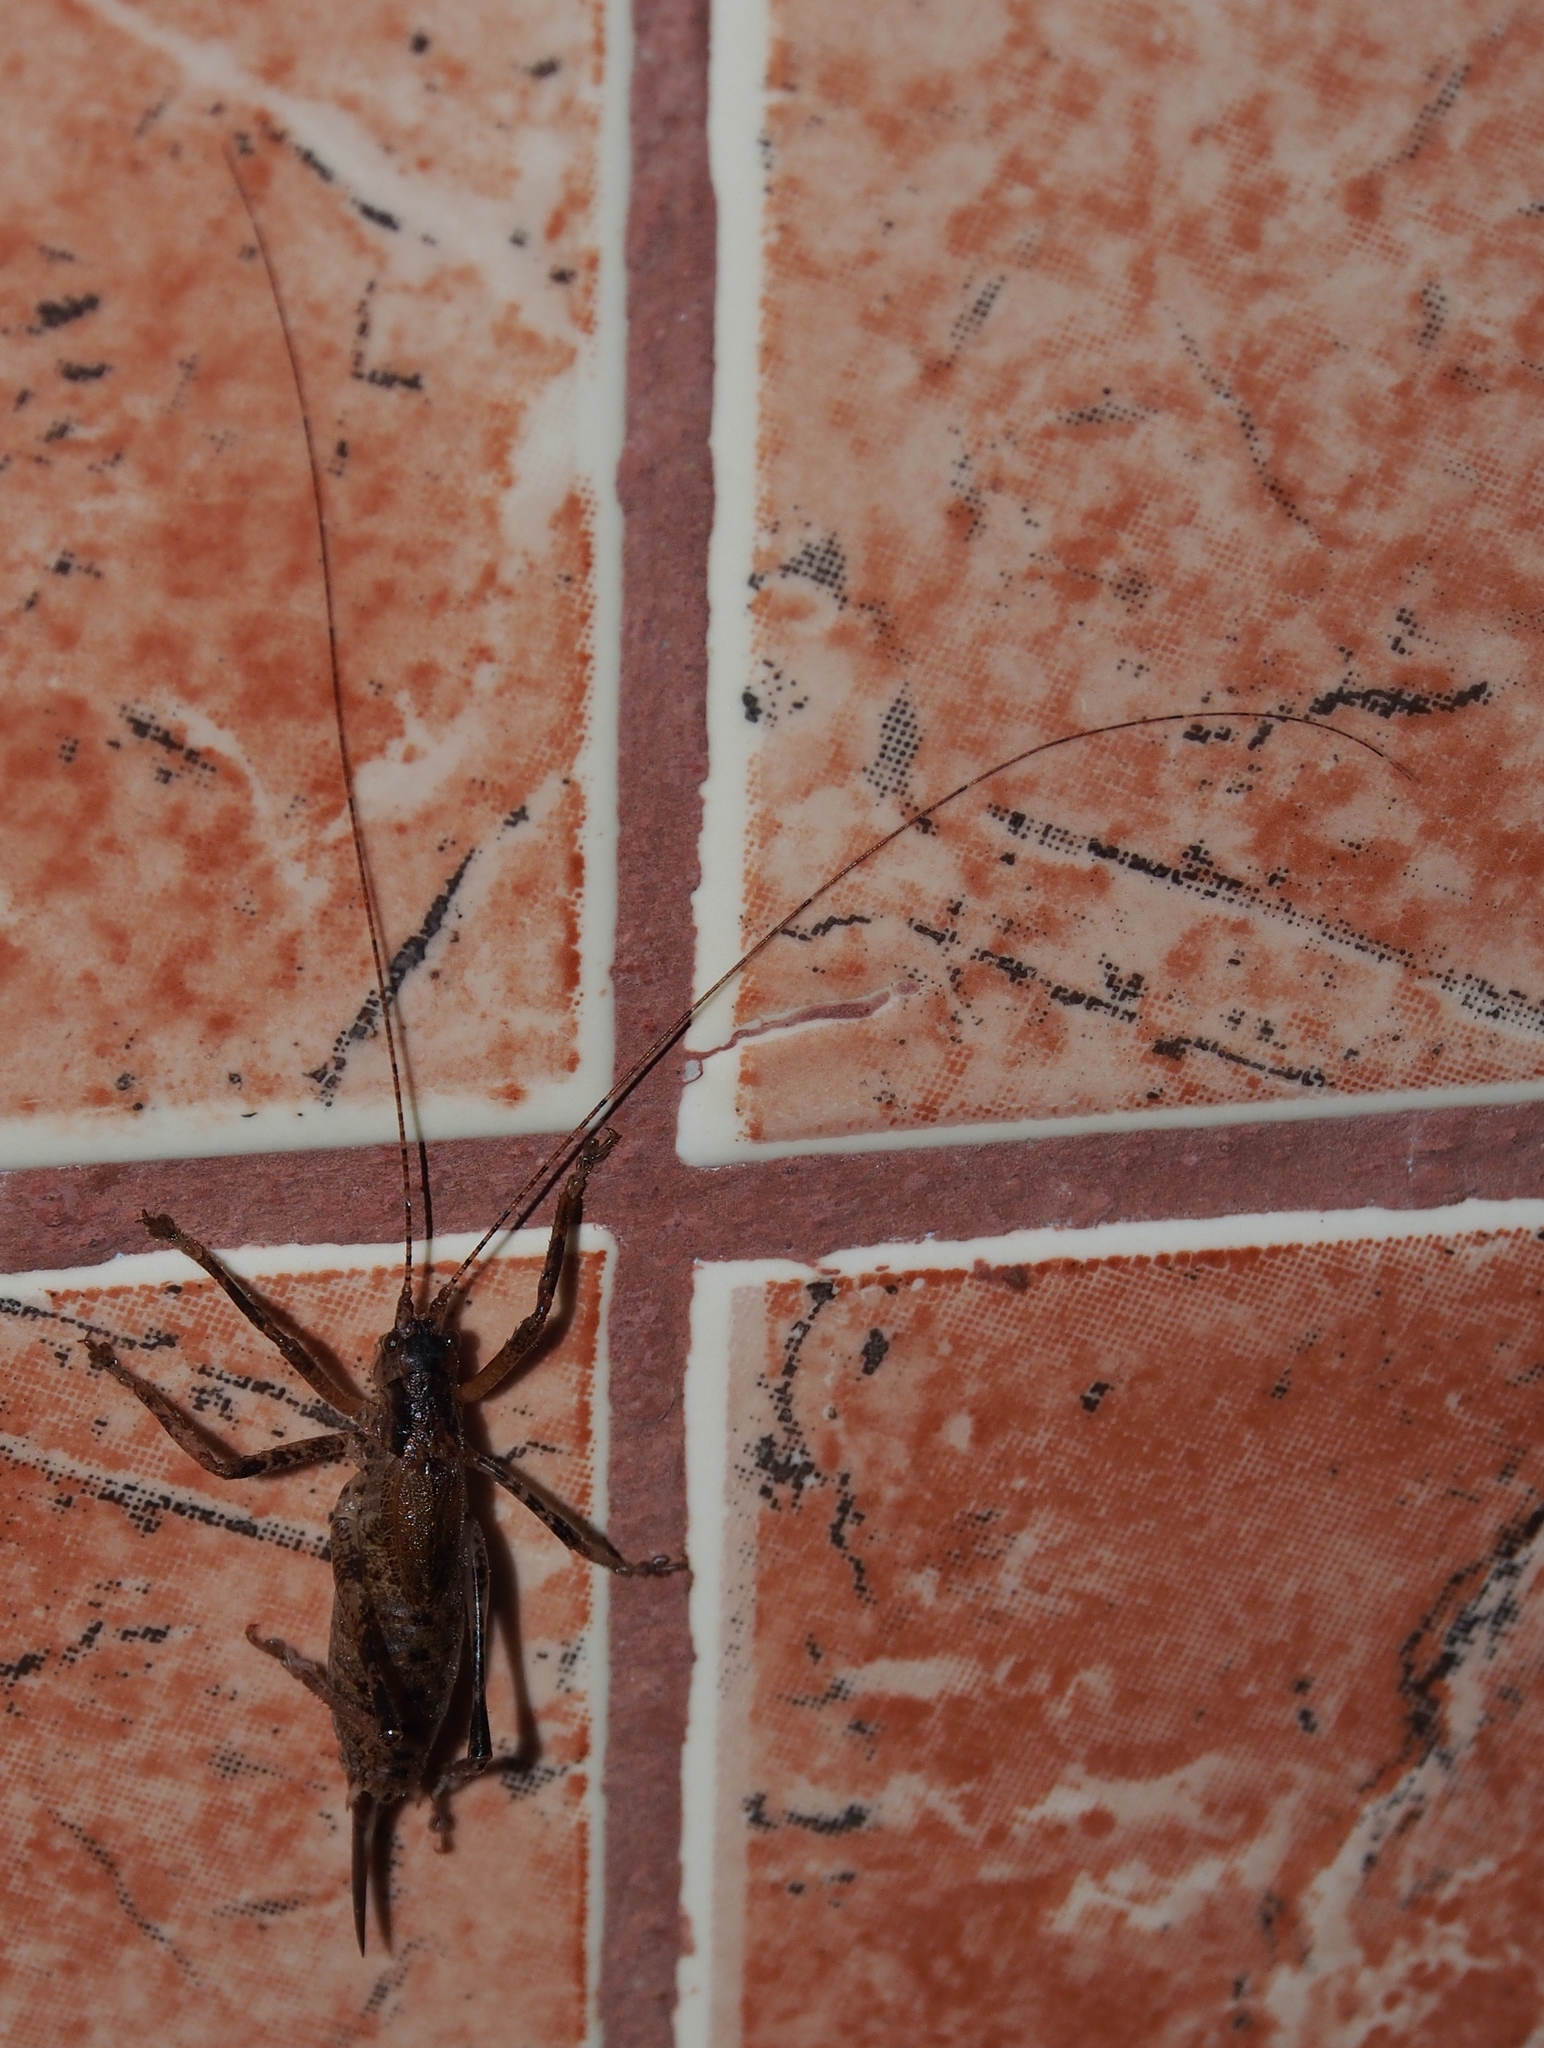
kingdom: Animalia
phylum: Arthropoda
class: Insecta
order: Orthoptera
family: Tettigoniidae
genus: Nannonotus
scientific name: Nannonotus brevipennis
